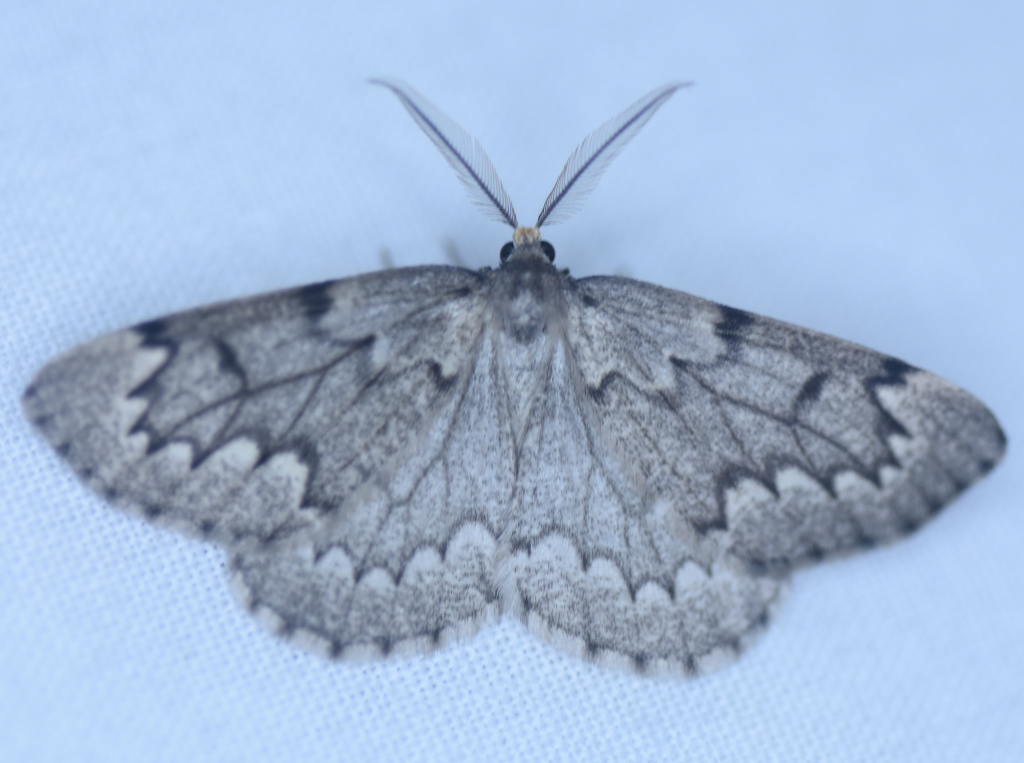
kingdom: Animalia
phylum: Arthropoda
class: Insecta
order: Lepidoptera
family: Geometridae
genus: Nepytia
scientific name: Nepytia canosaria
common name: False hemlock looper
